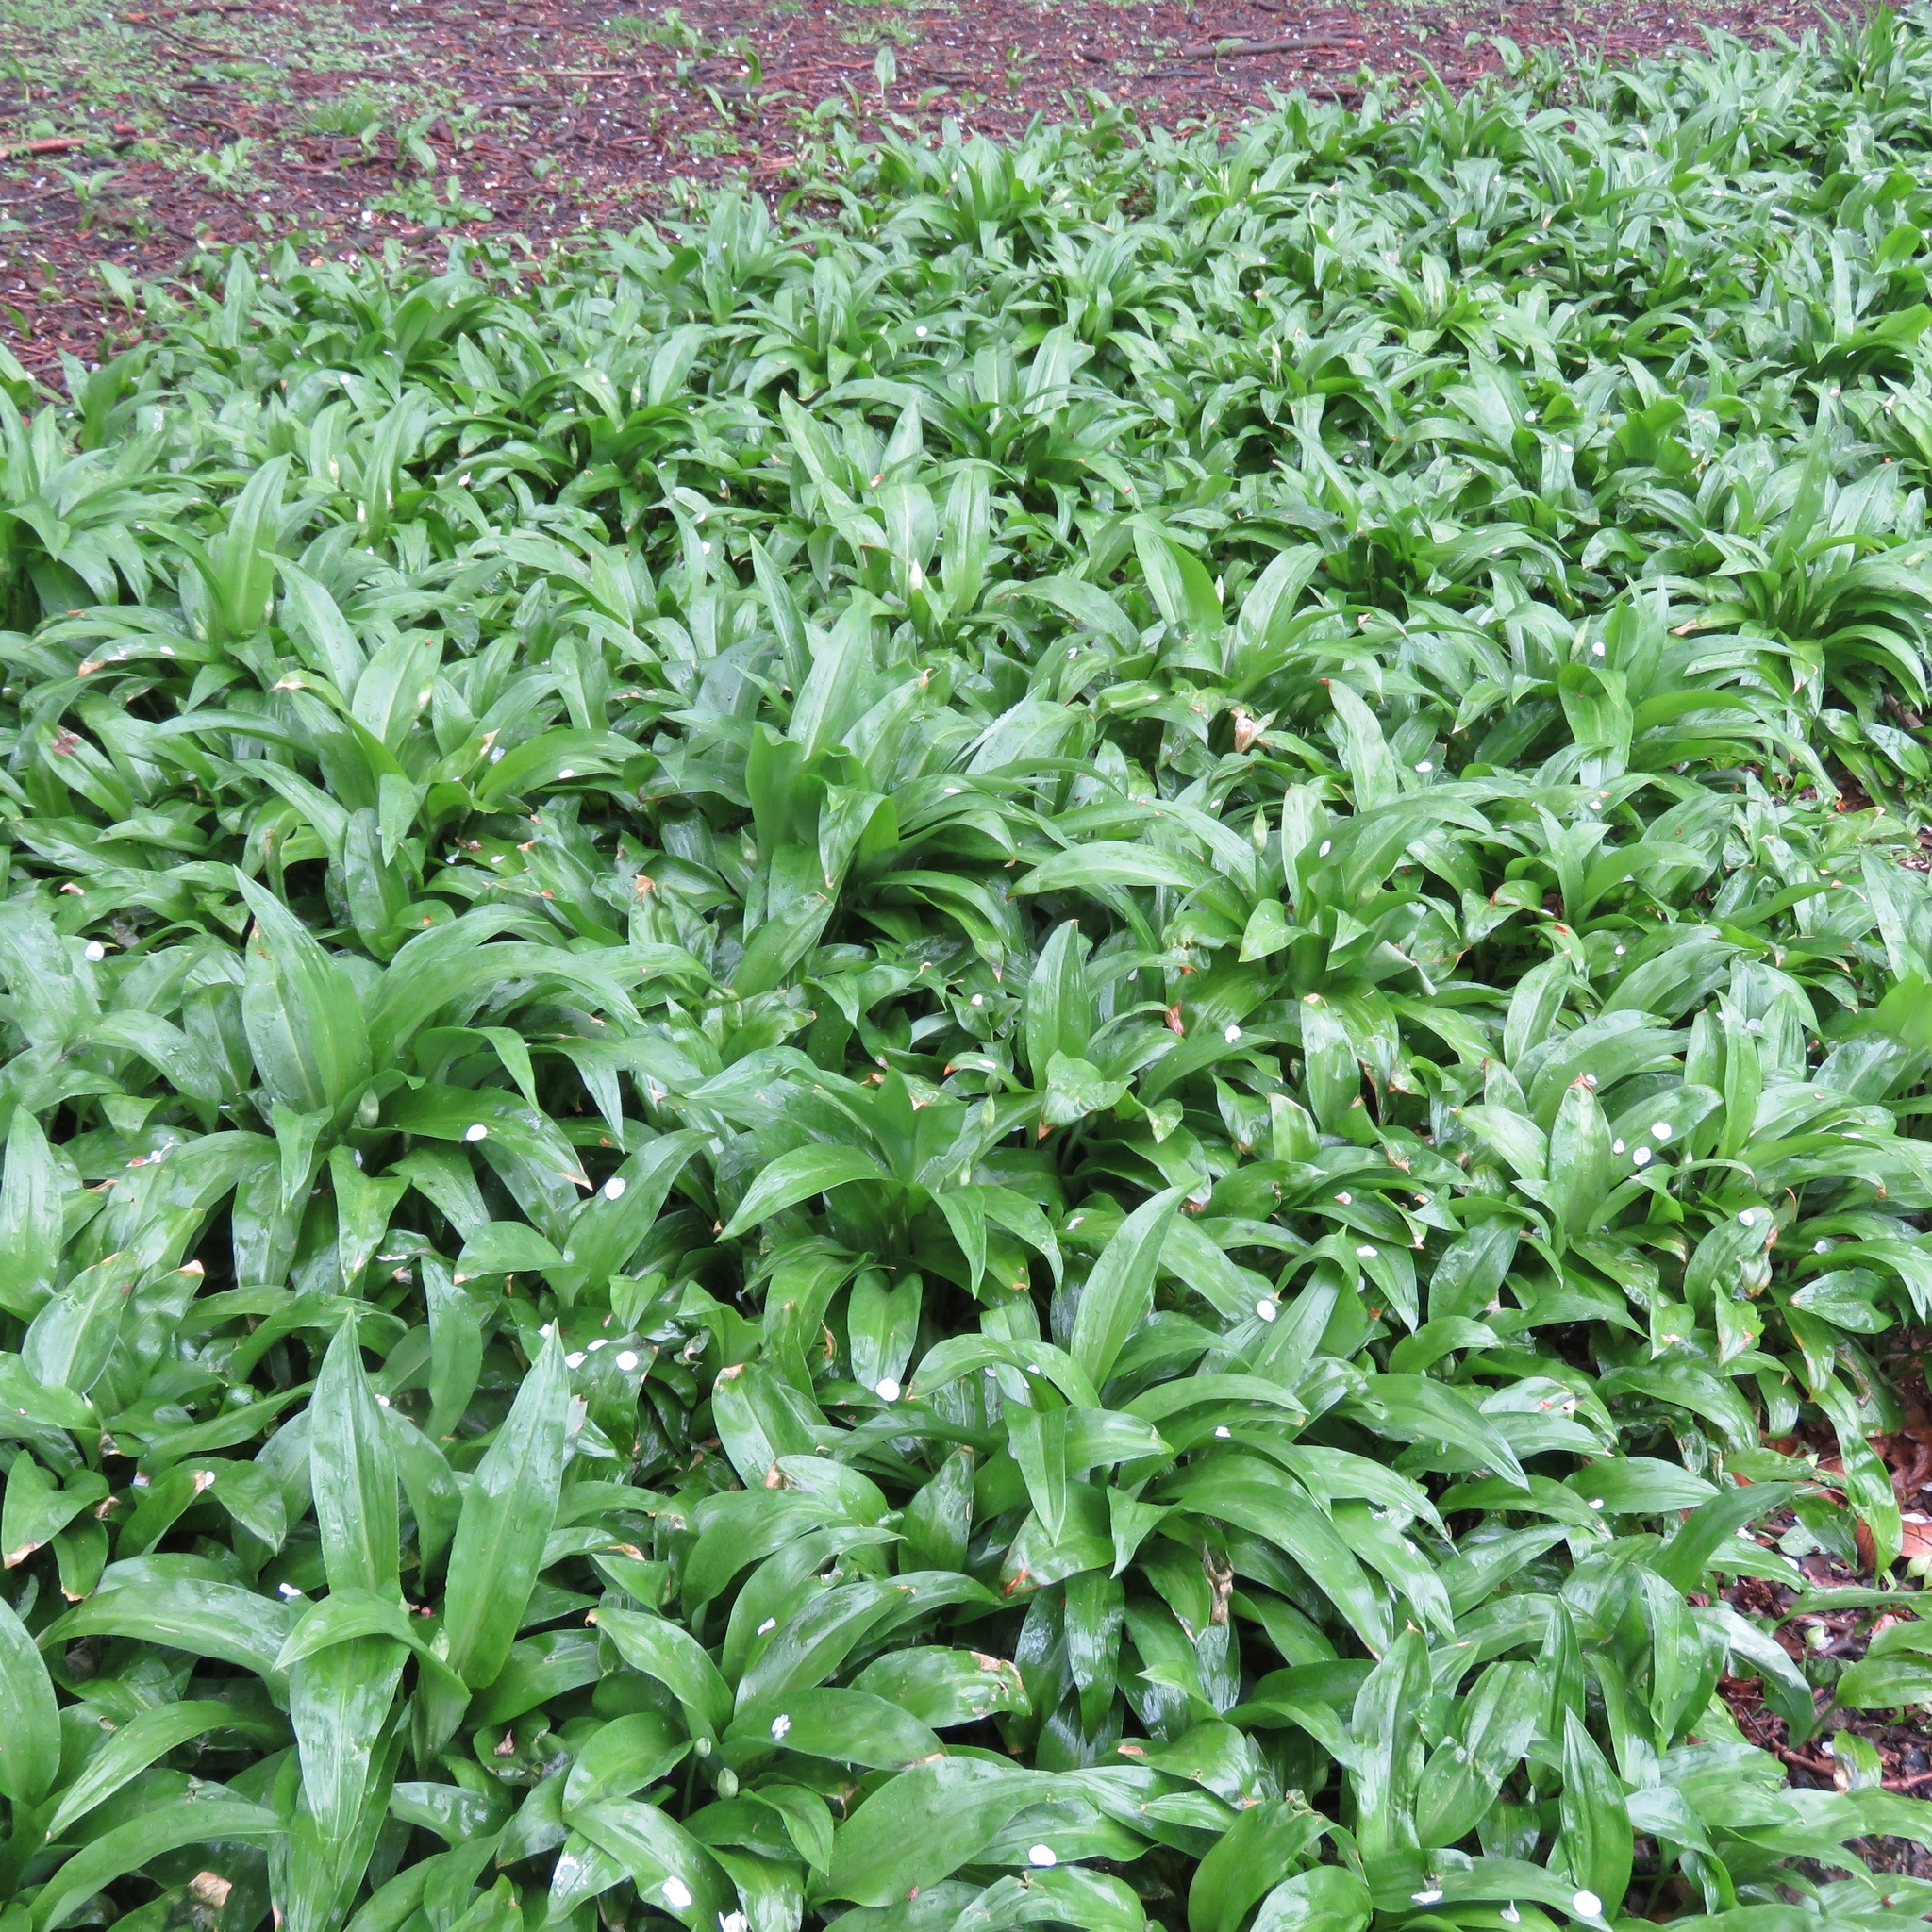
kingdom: Plantae
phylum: Tracheophyta
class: Liliopsida
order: Asparagales
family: Amaryllidaceae
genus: Allium
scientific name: Allium ursinum
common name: Ramsons
